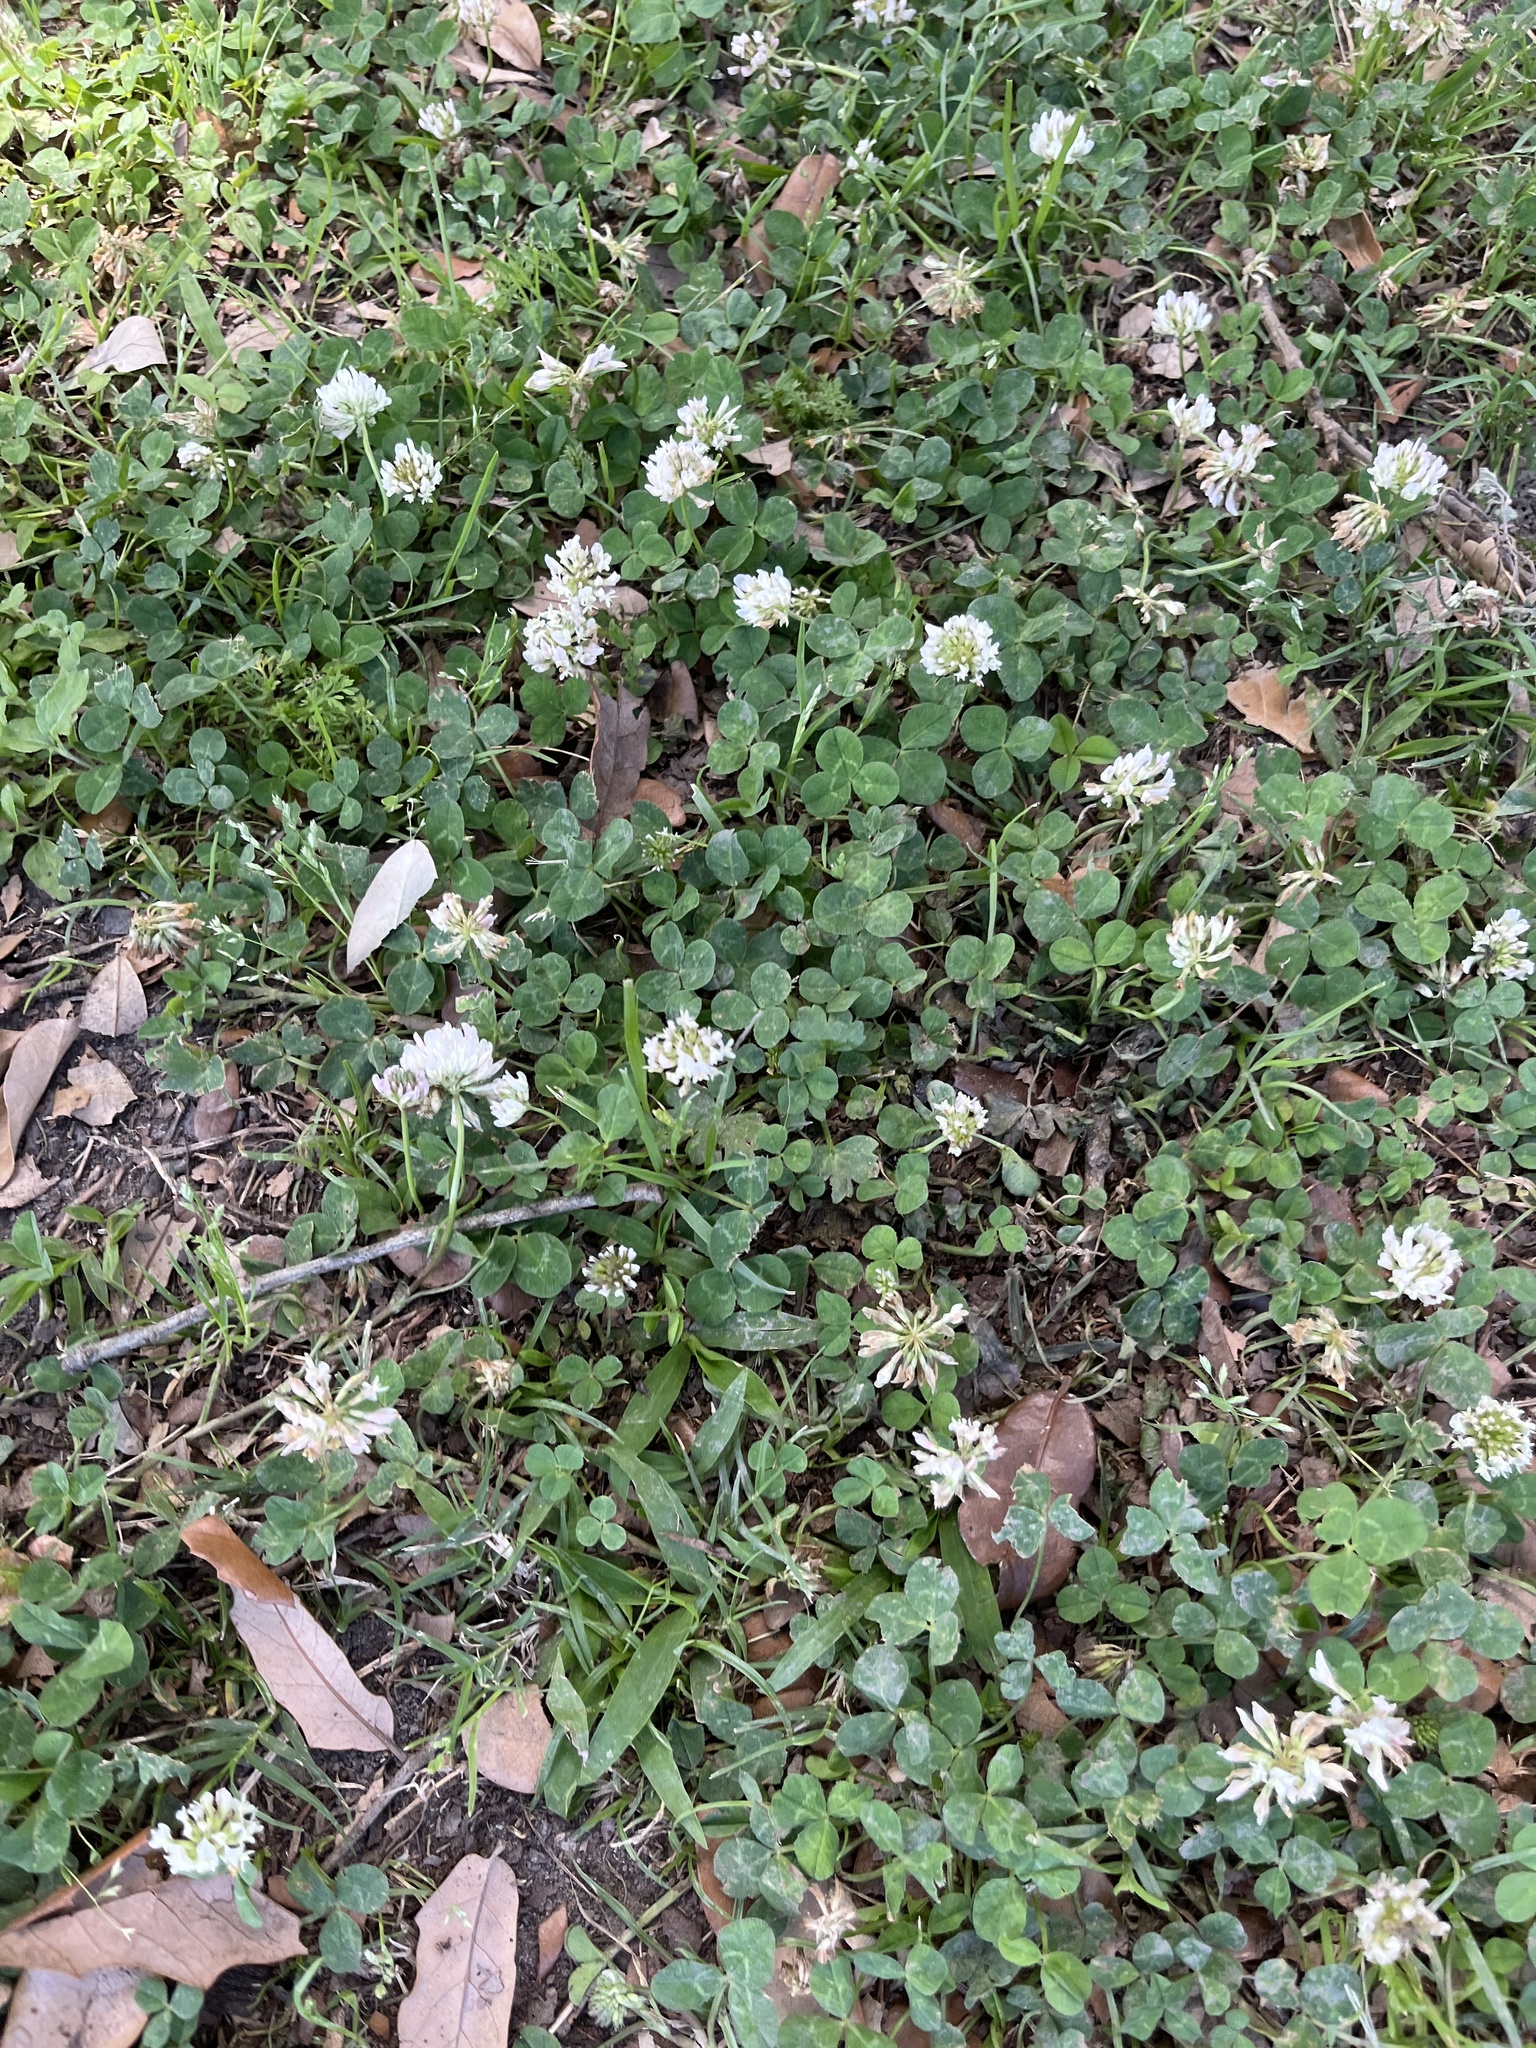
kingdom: Plantae
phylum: Tracheophyta
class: Magnoliopsida
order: Fabales
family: Fabaceae
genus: Trifolium
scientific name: Trifolium repens
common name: White clover
